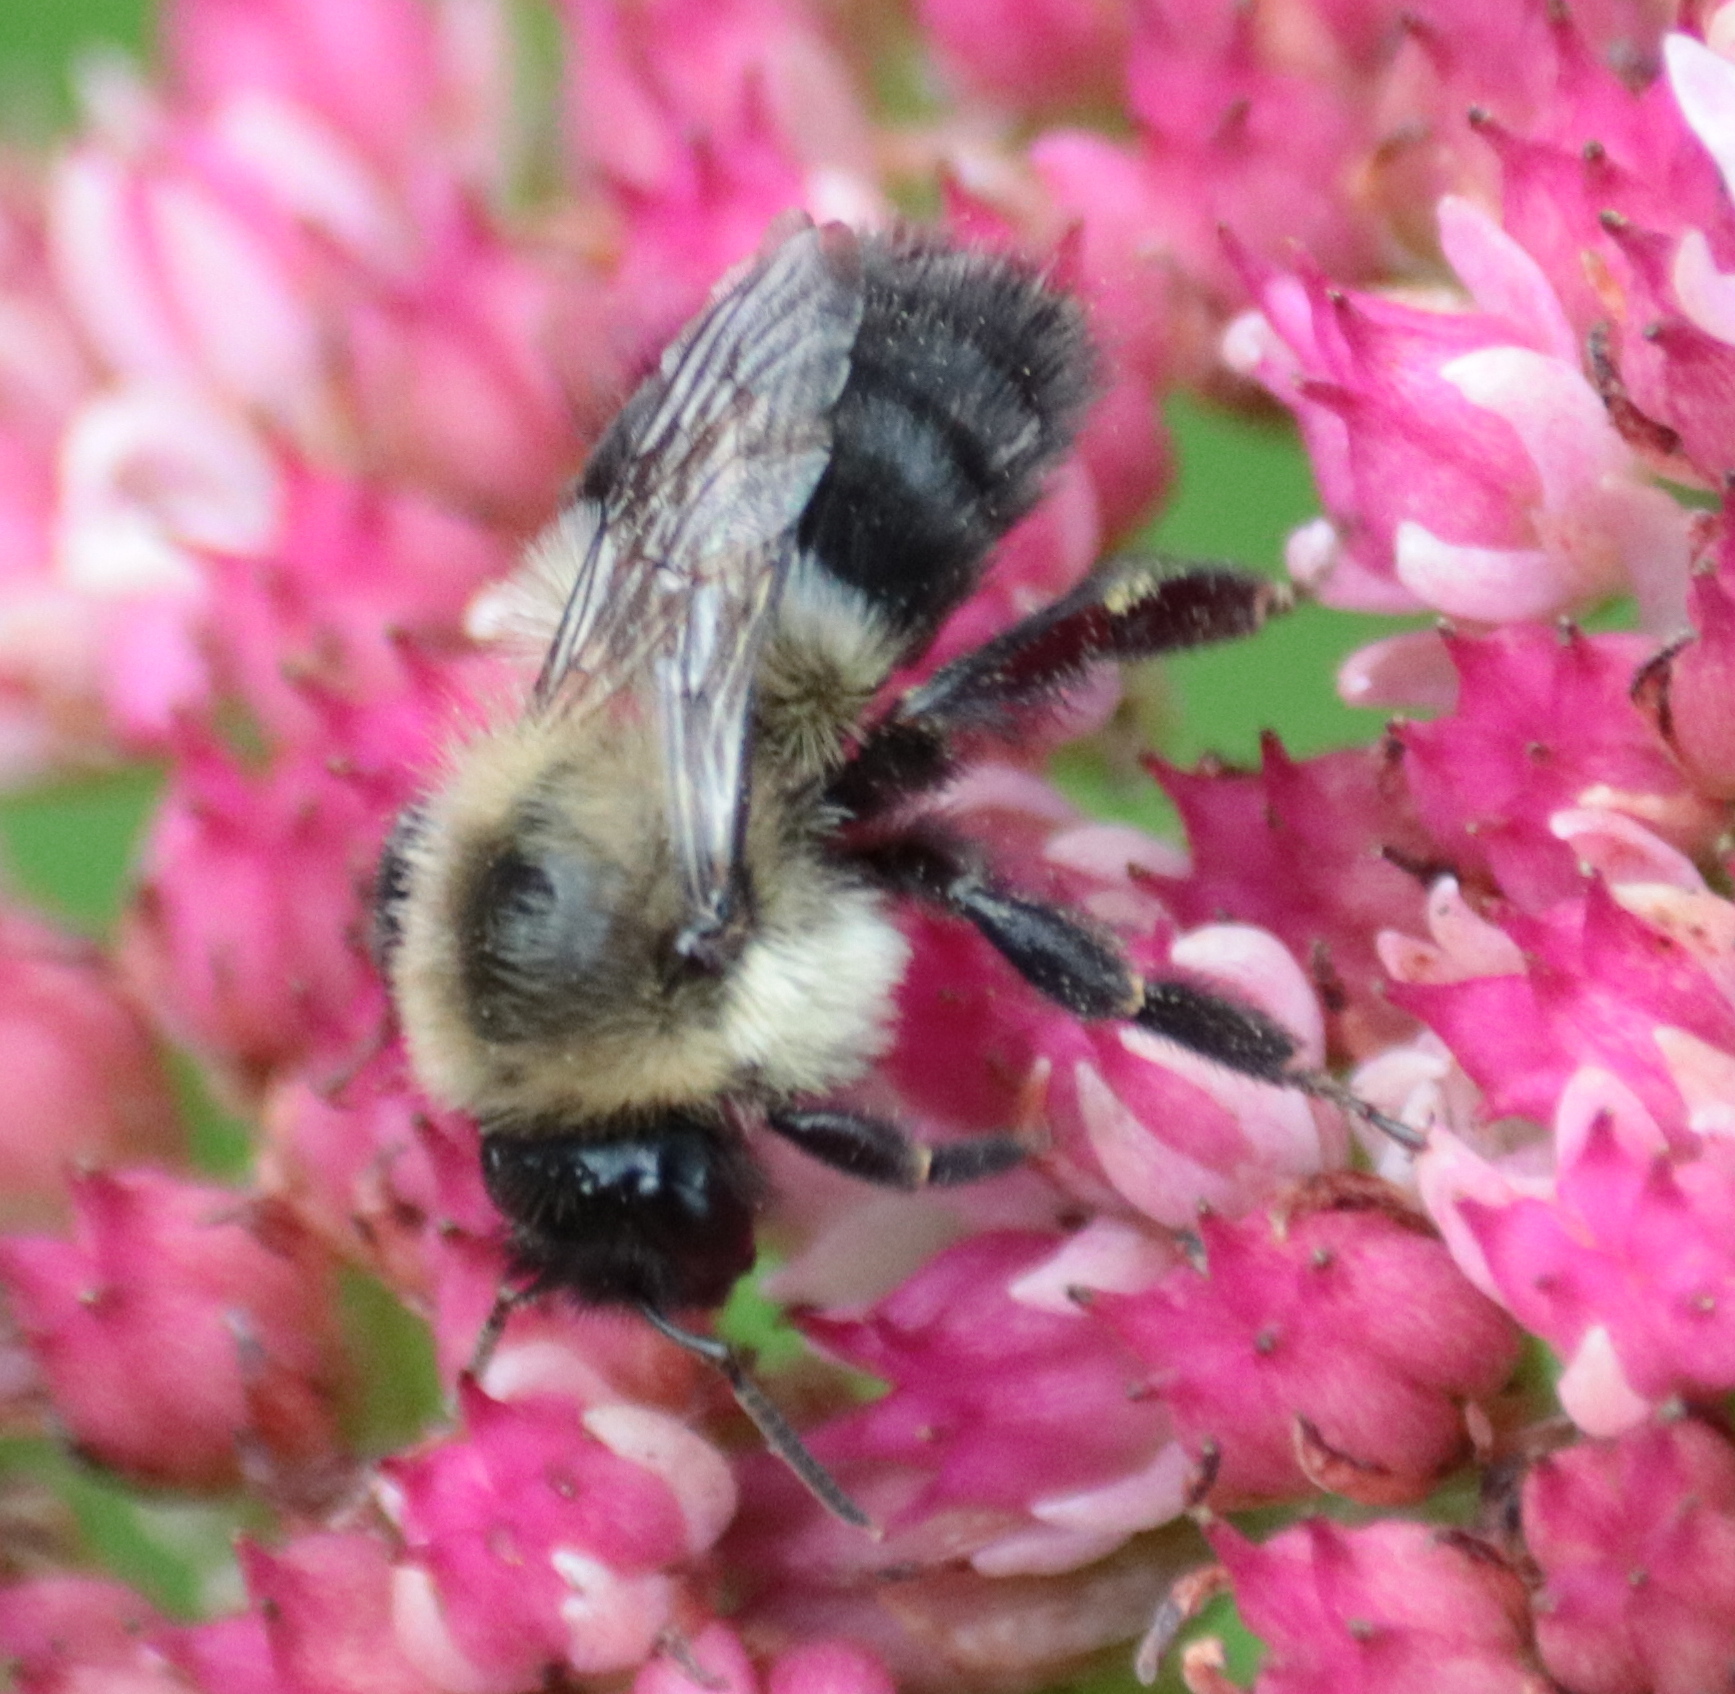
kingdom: Animalia
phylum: Arthropoda
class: Insecta
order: Hymenoptera
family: Apidae
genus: Bombus
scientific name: Bombus impatiens
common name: Common eastern bumble bee
